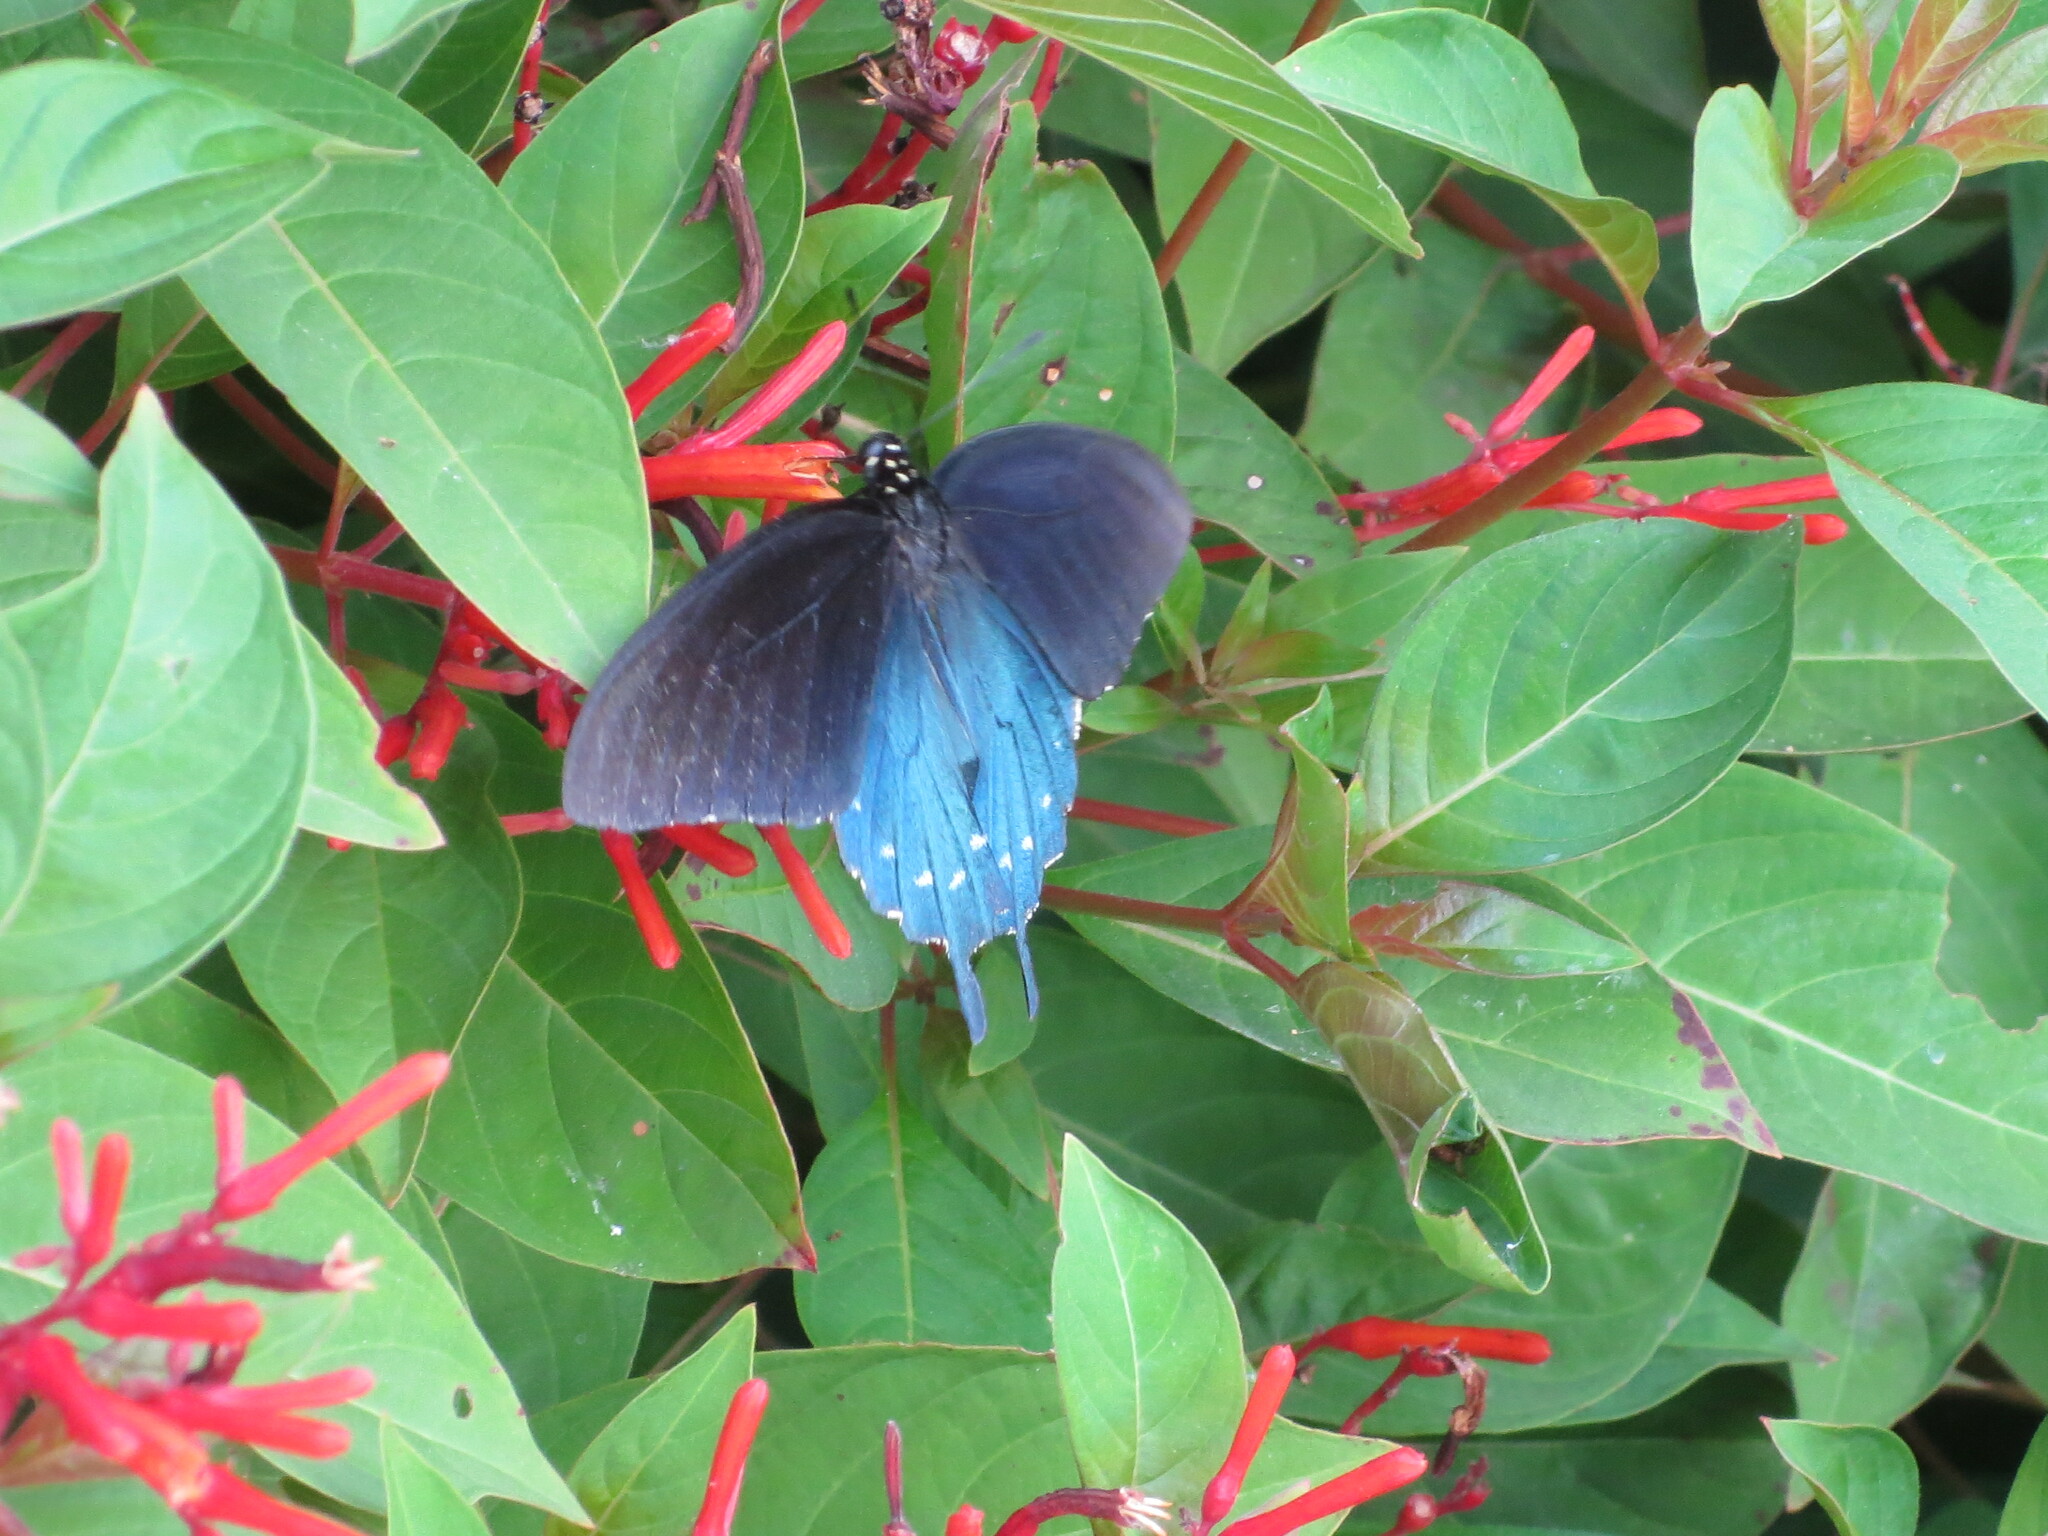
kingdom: Animalia
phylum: Arthropoda
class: Insecta
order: Lepidoptera
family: Papilionidae
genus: Battus
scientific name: Battus philenor
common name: Pipevine swallowtail
